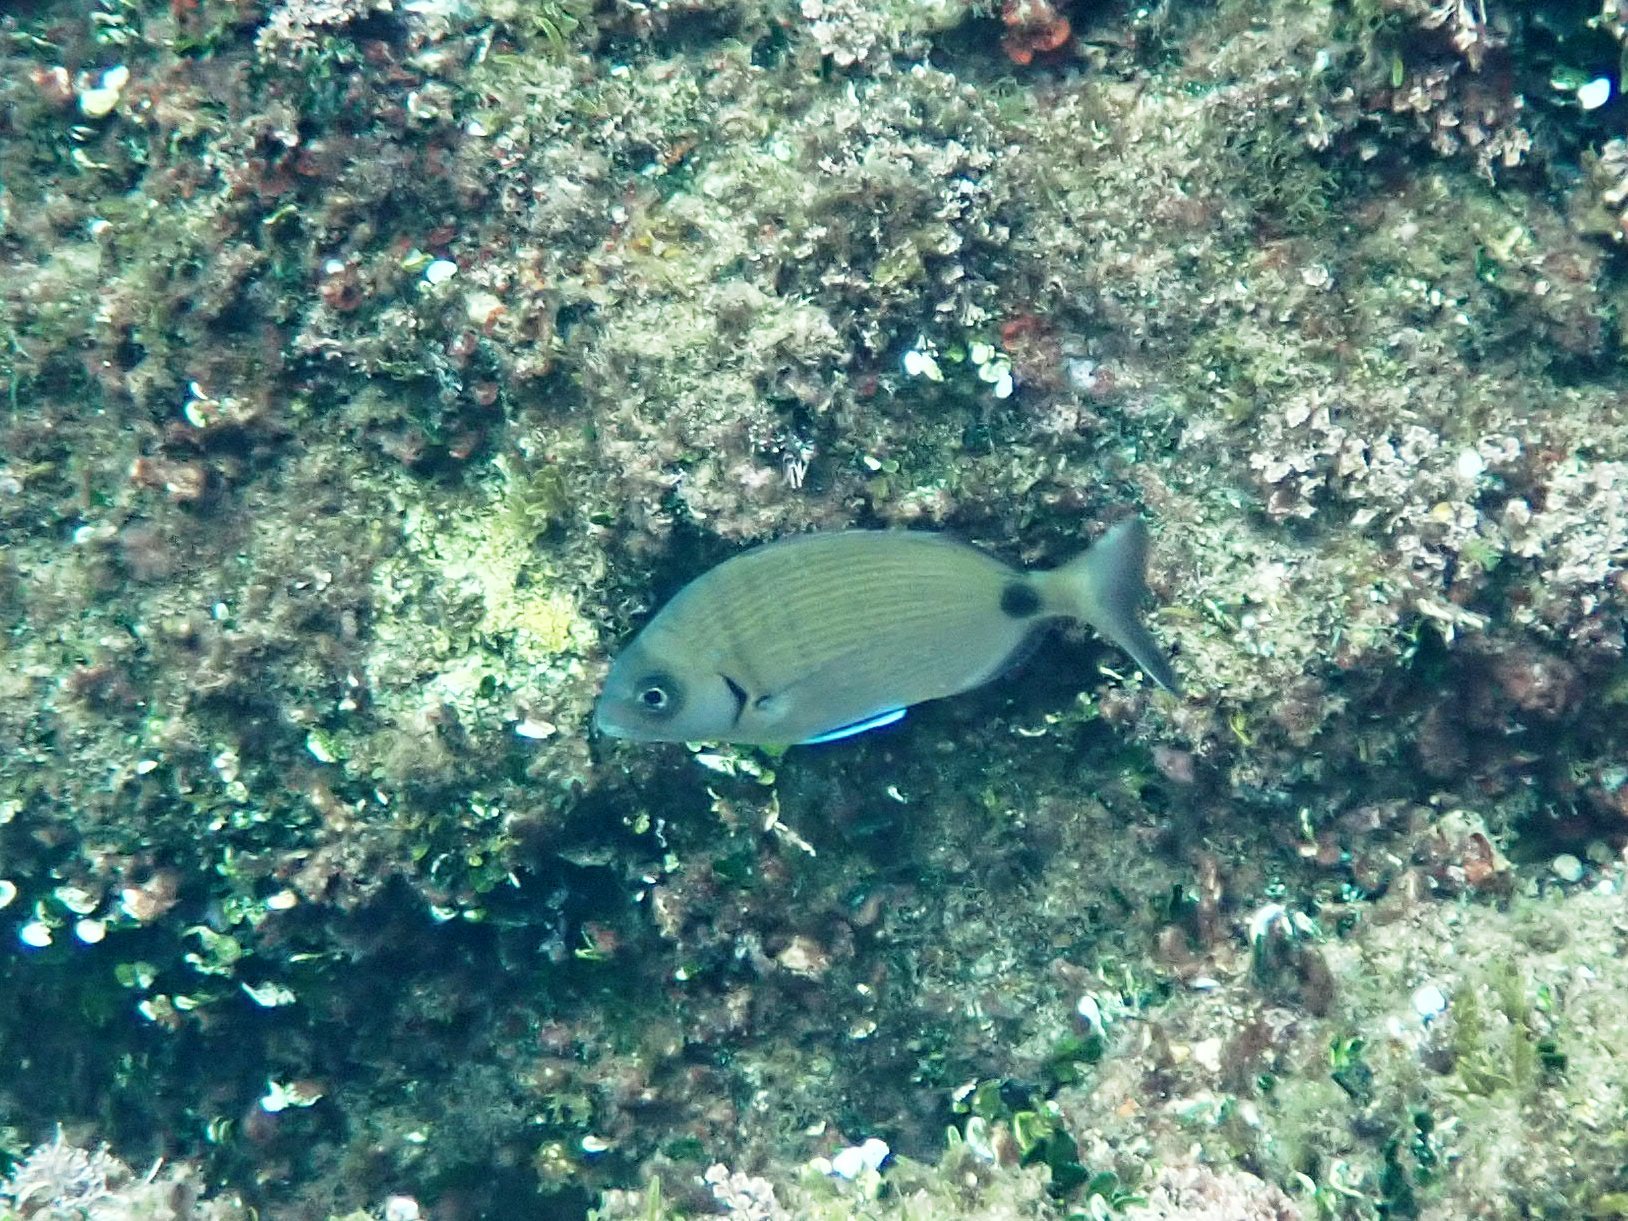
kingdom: Animalia
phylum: Chordata
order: Perciformes
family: Sparidae
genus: Diplodus
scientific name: Diplodus sargus
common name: White seabream
